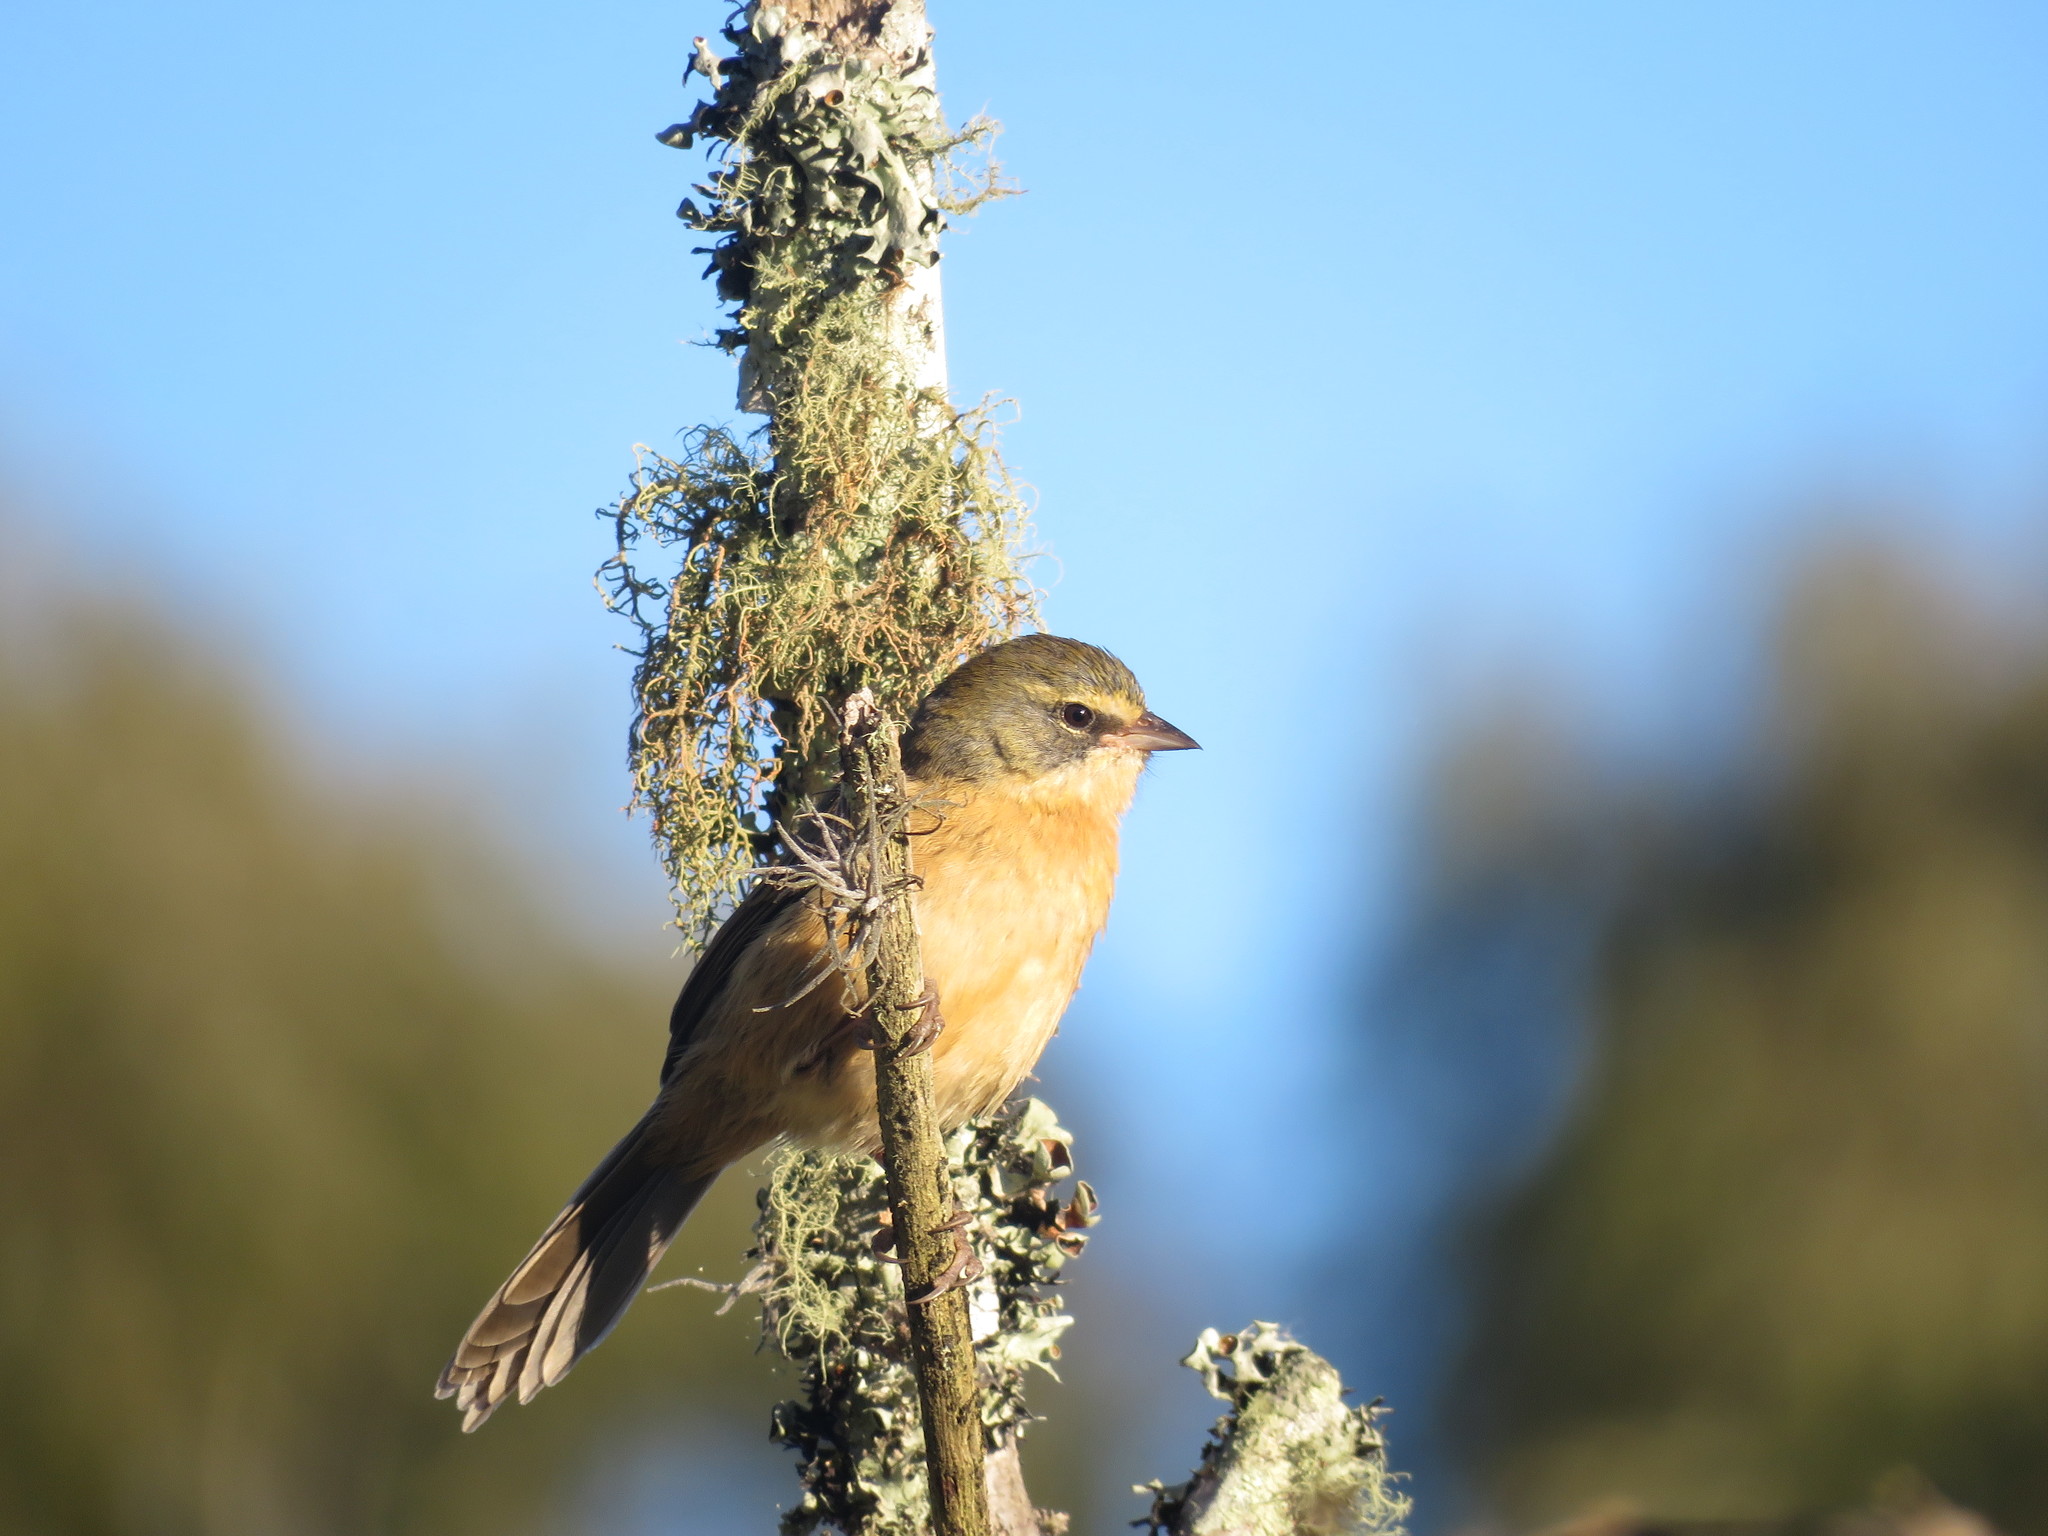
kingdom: Animalia
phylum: Chordata
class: Aves
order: Passeriformes
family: Thraupidae
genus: Donacospiza
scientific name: Donacospiza albifrons
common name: Long-tailed reed finch
